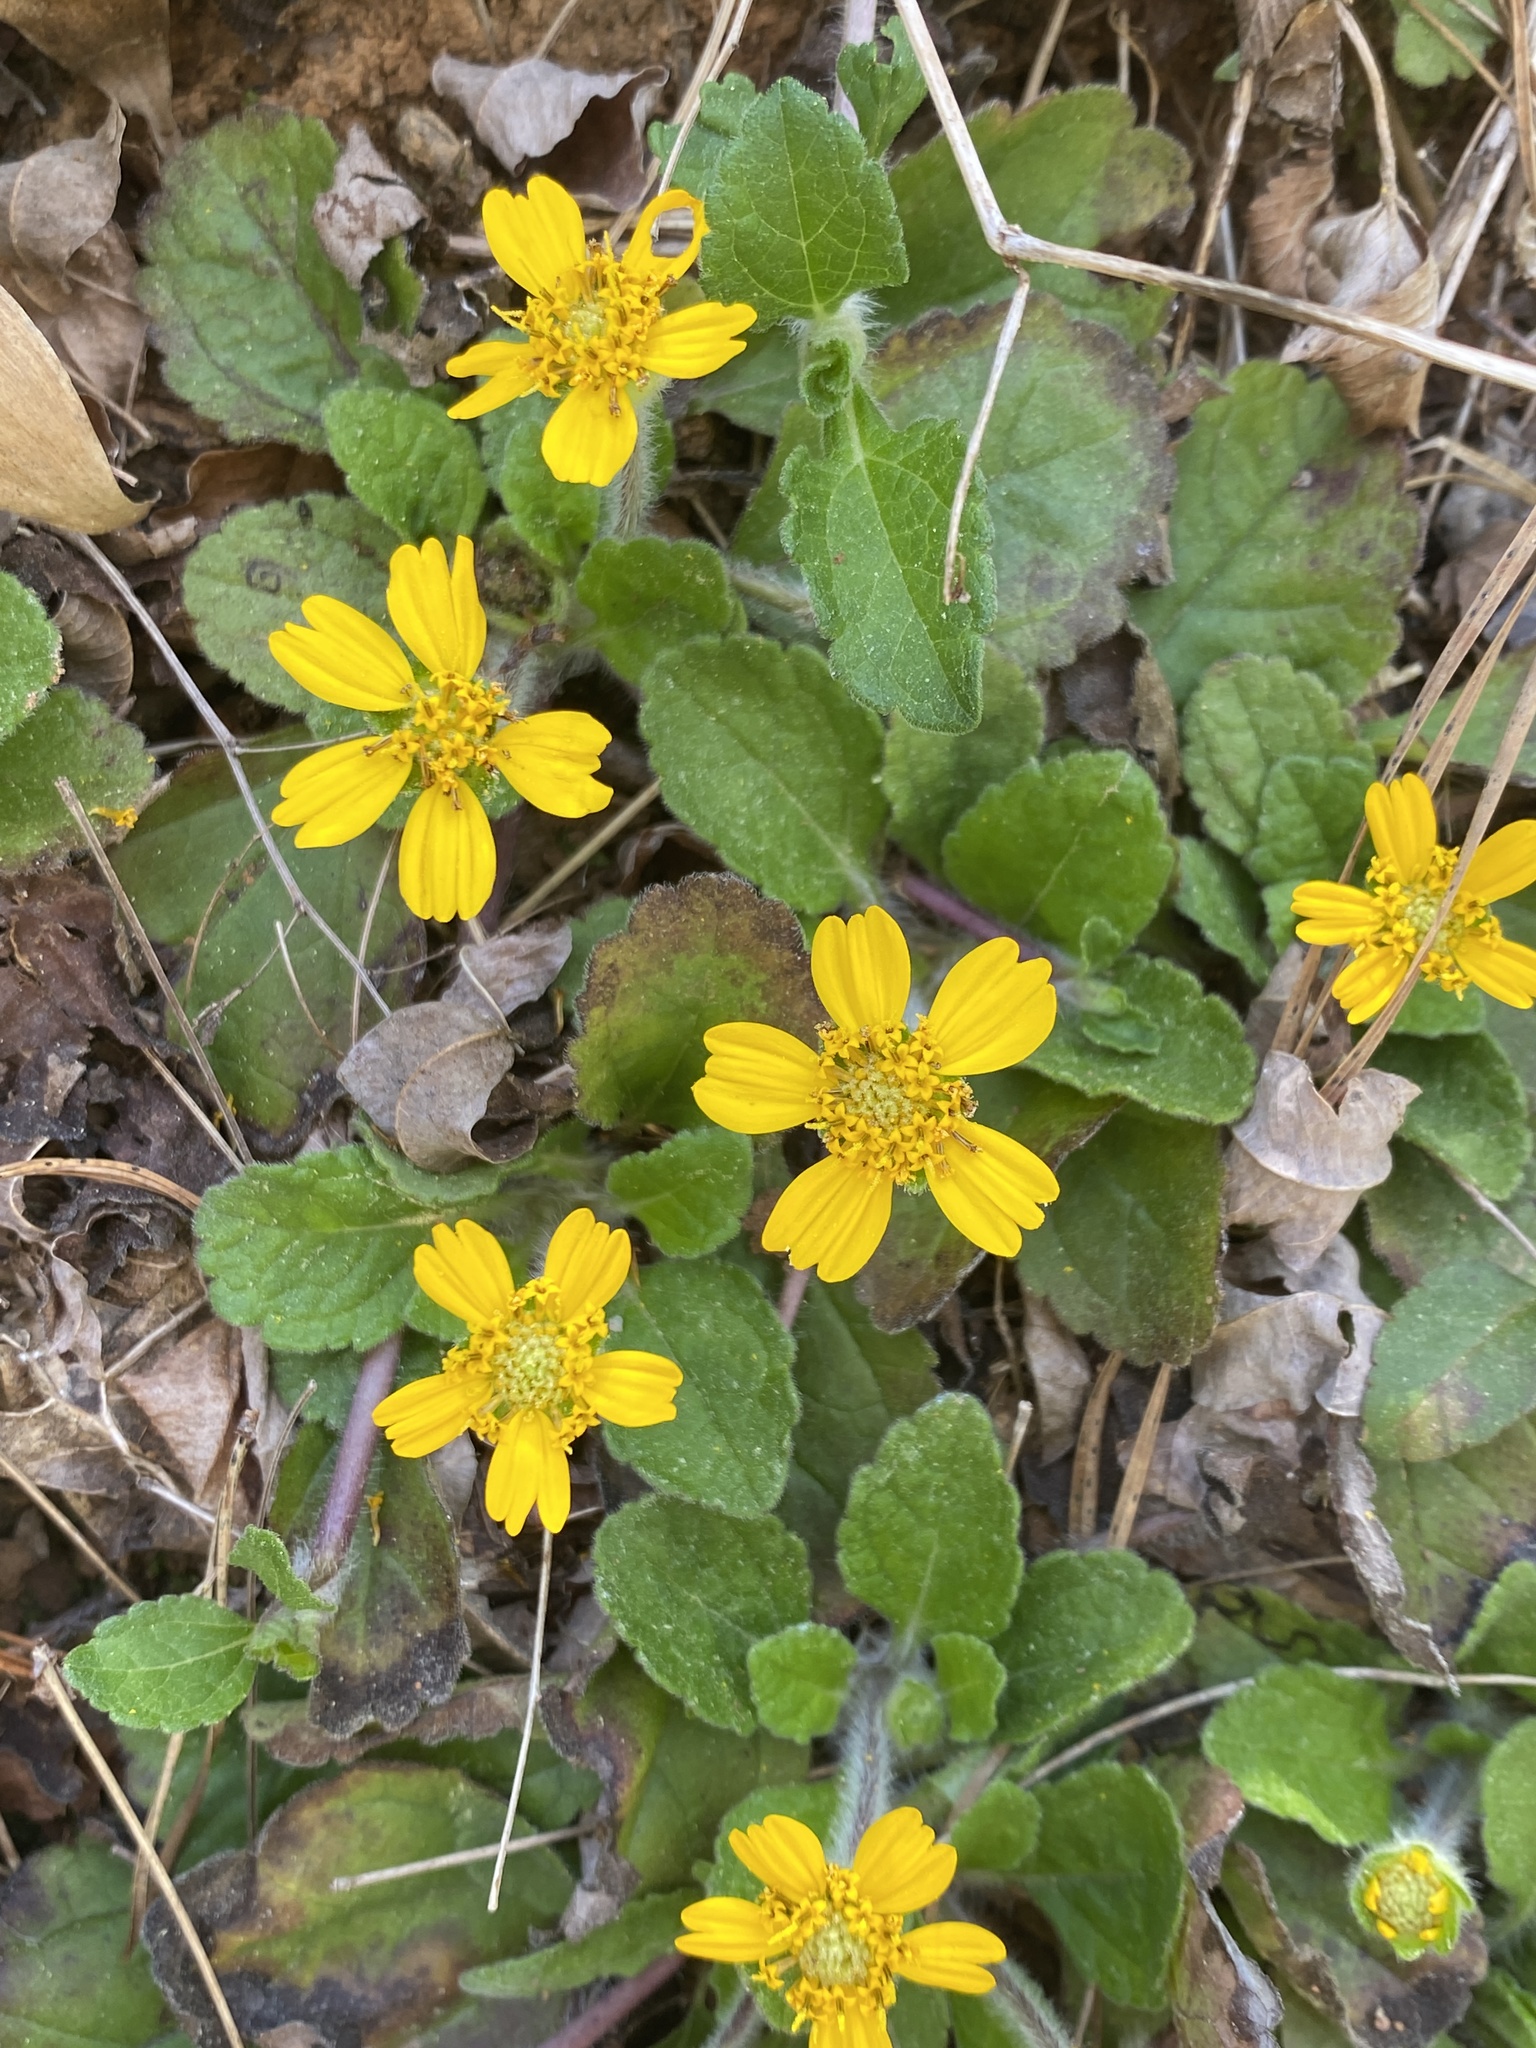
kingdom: Plantae
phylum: Tracheophyta
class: Magnoliopsida
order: Asterales
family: Asteraceae
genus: Chrysogonum
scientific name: Chrysogonum virginianum
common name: Golden-knee
